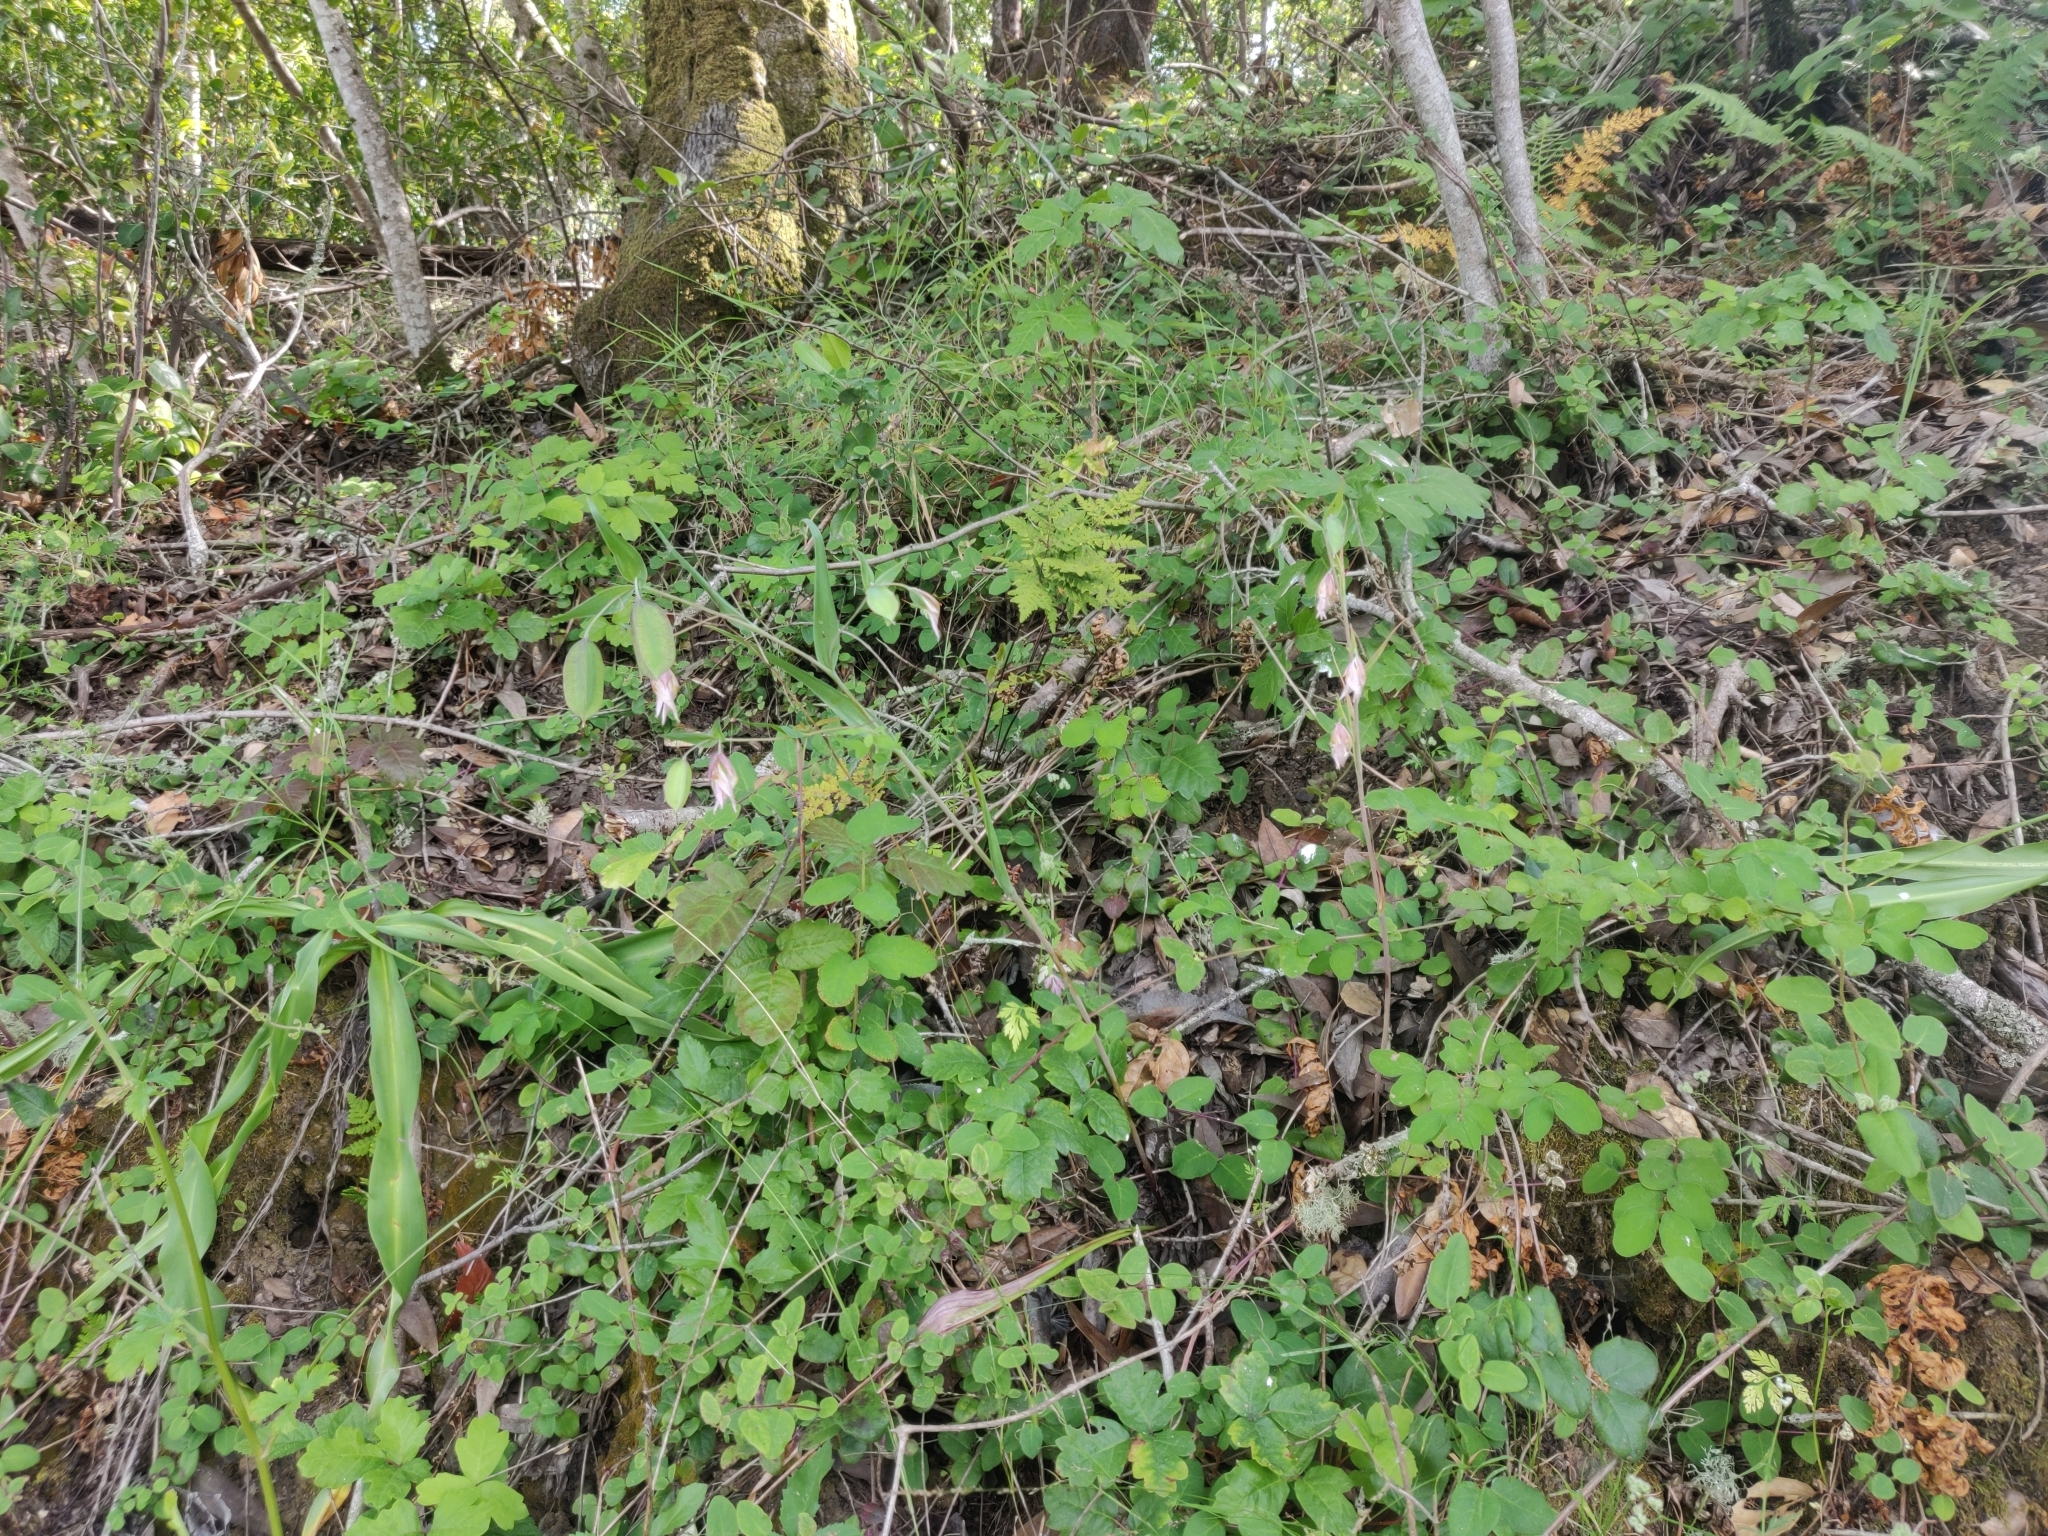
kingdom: Plantae
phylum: Tracheophyta
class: Liliopsida
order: Liliales
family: Liliaceae
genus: Calochortus
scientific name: Calochortus albus
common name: Fairy-lantern
